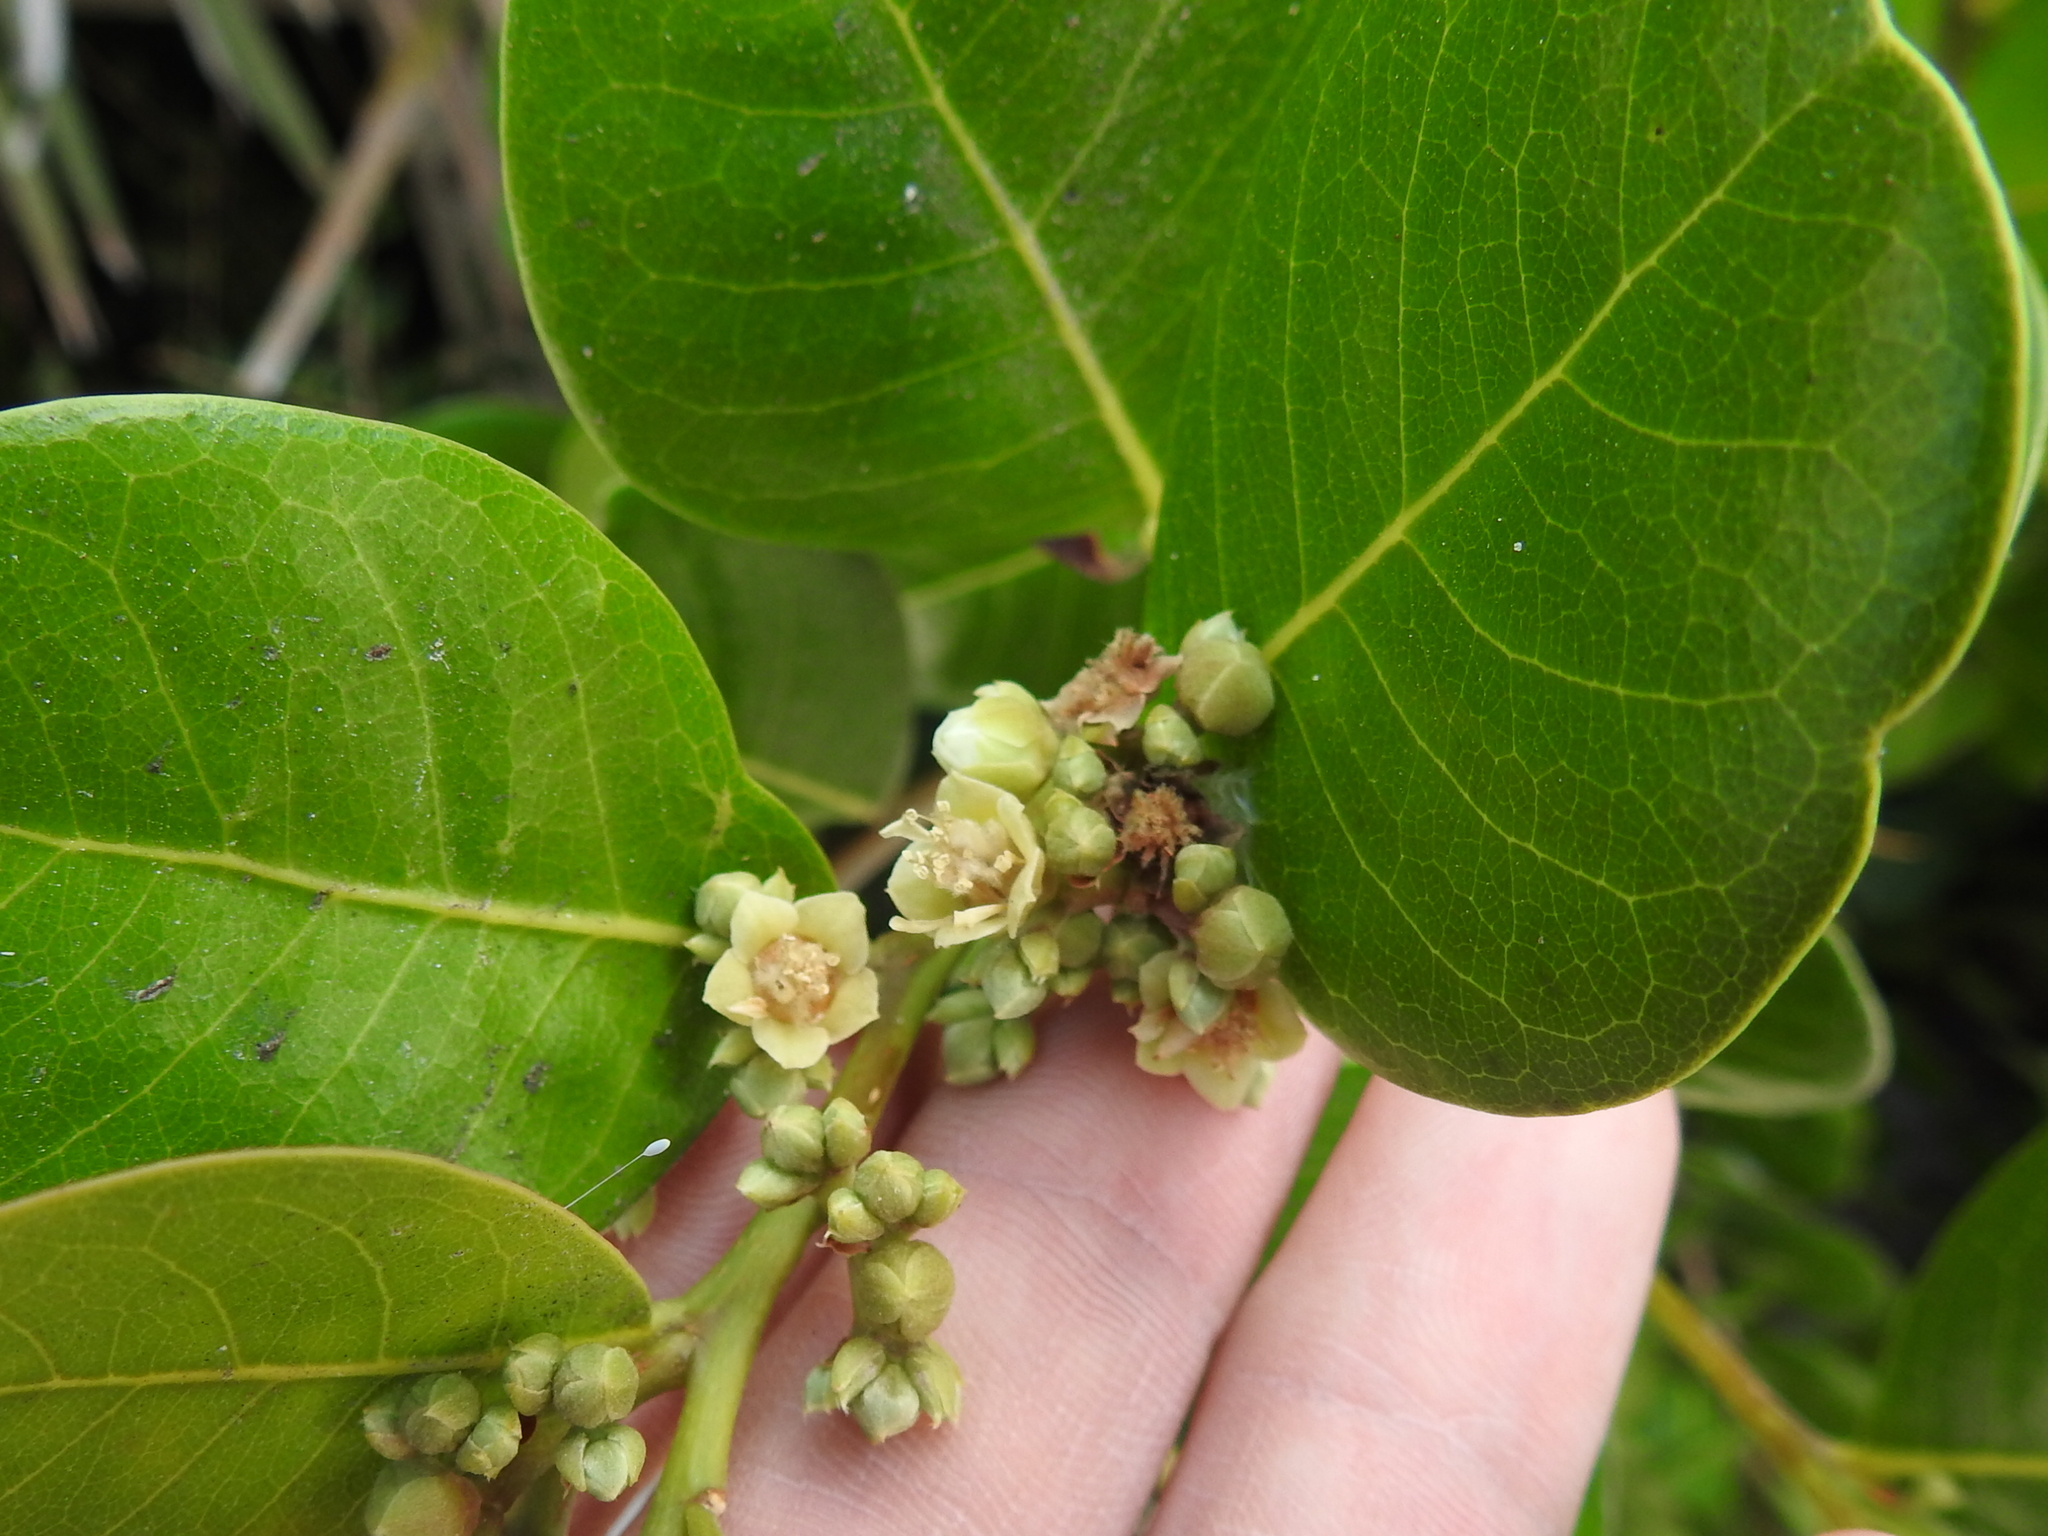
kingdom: Plantae
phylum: Tracheophyta
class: Magnoliopsida
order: Malpighiales
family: Chrysobalanaceae
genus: Chrysobalanus
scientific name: Chrysobalanus icaco
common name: Coco plum
